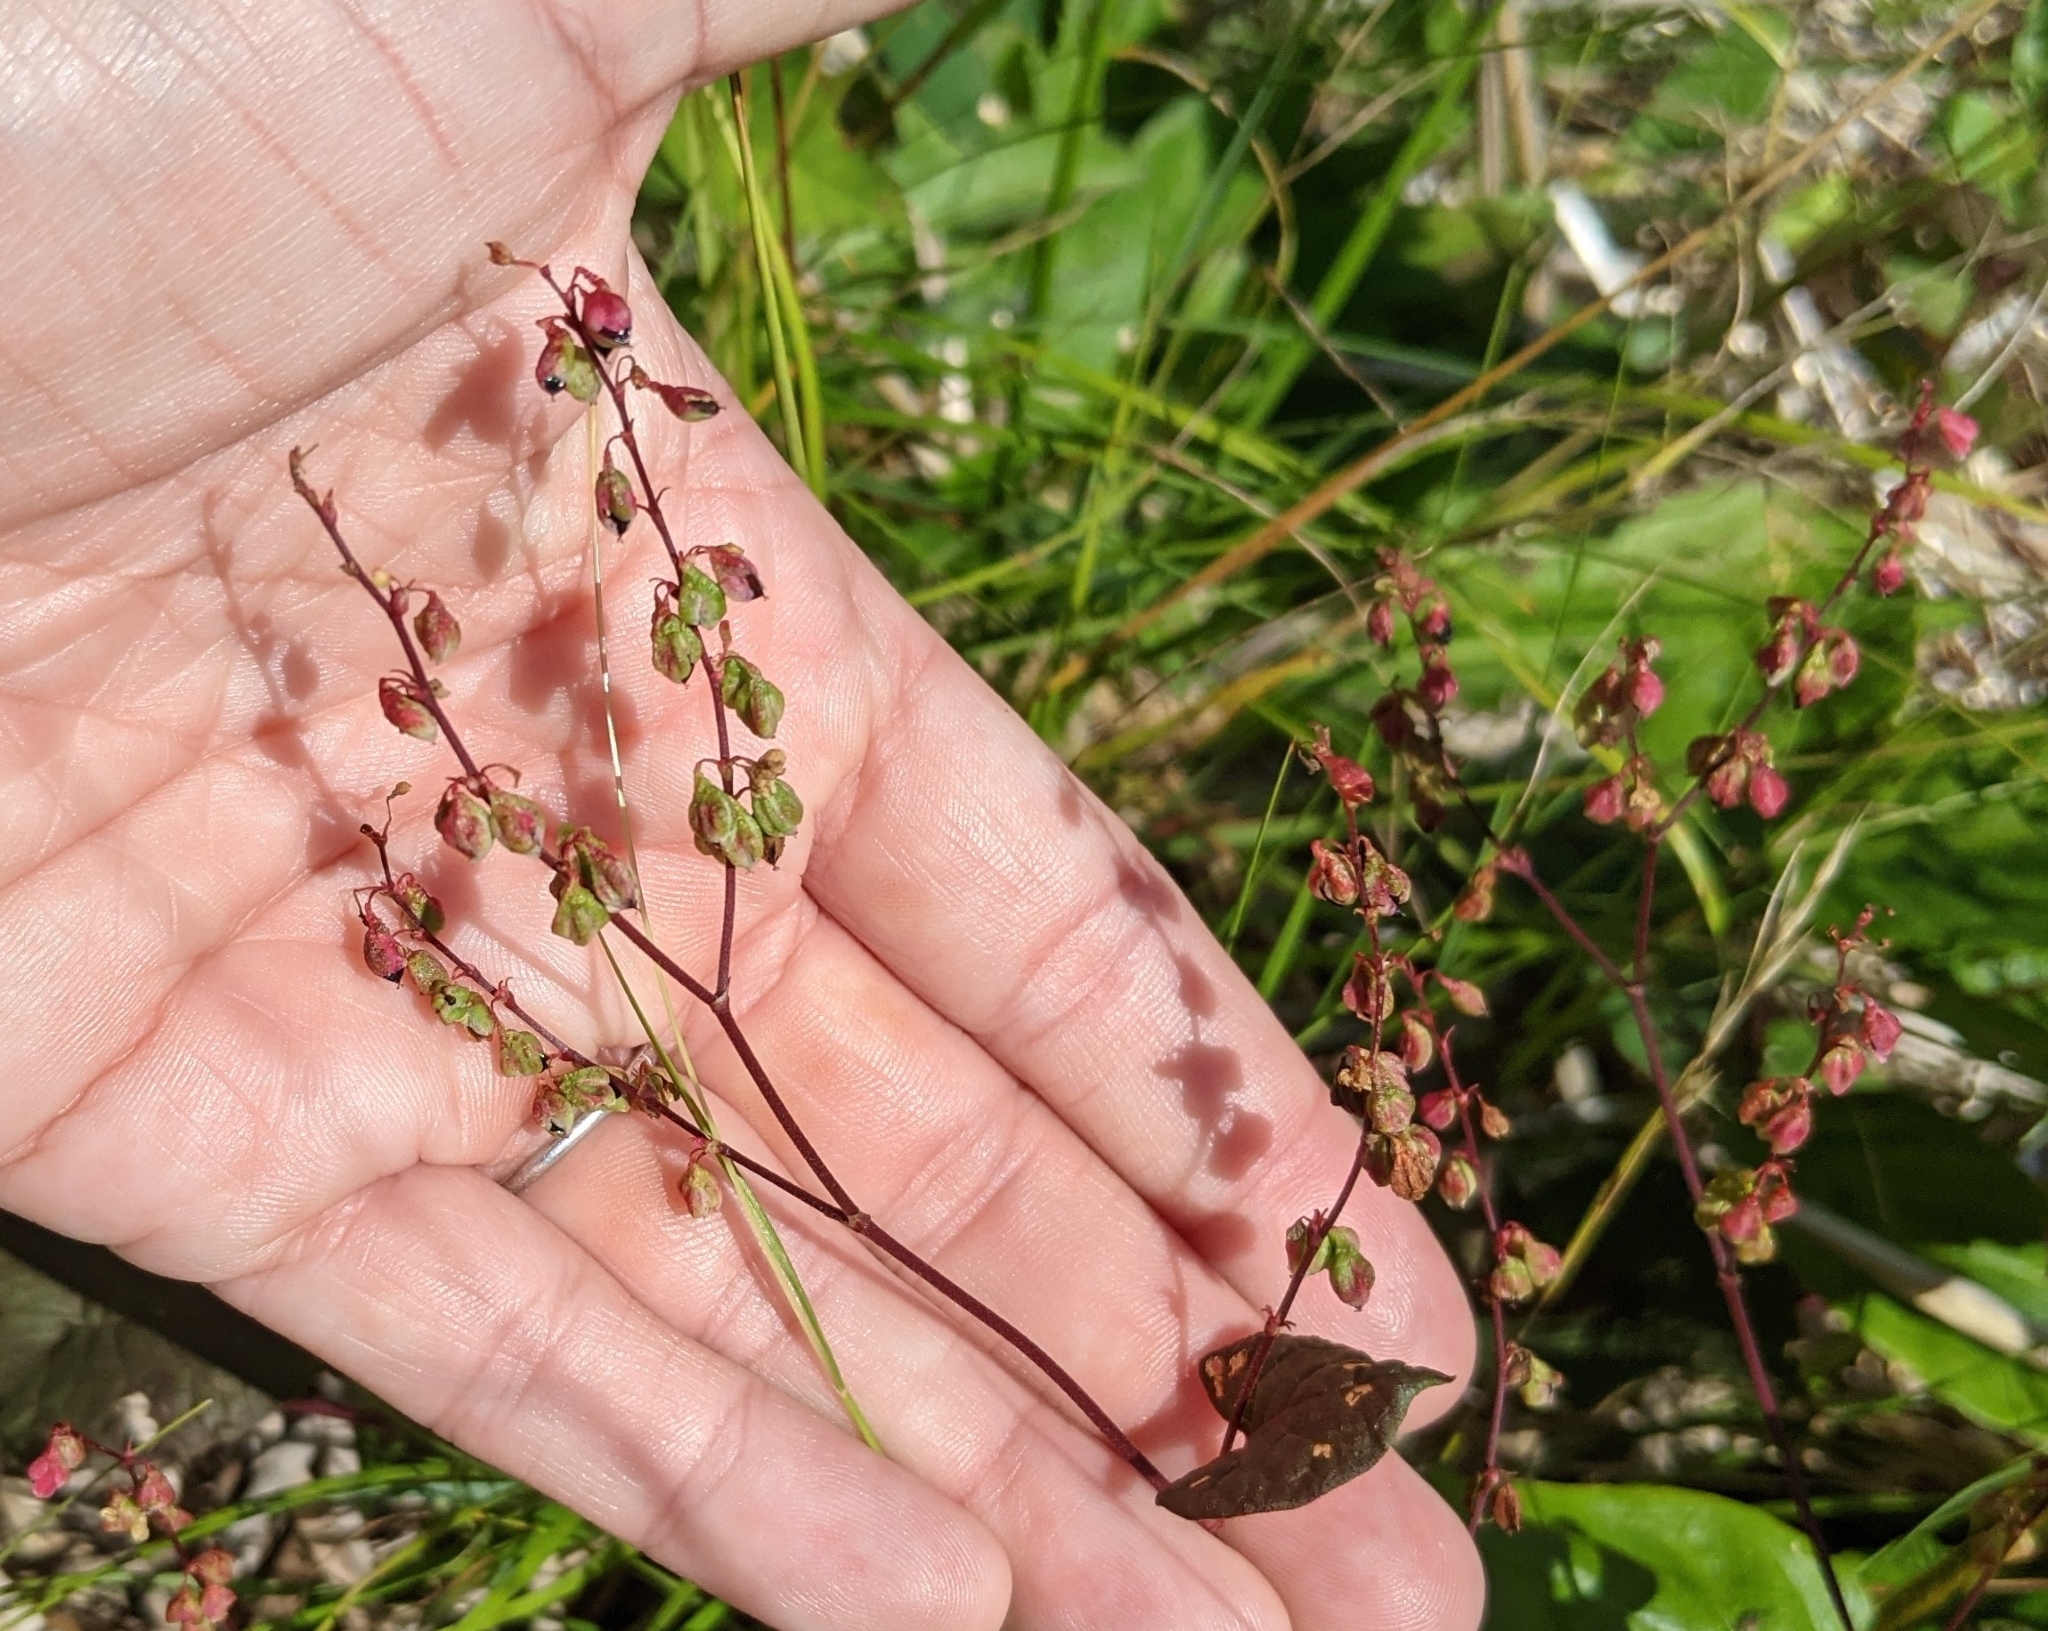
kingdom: Plantae
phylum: Tracheophyta
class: Magnoliopsida
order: Caryophyllales
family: Polygonaceae
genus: Parogonum
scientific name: Parogonum ciliinode
